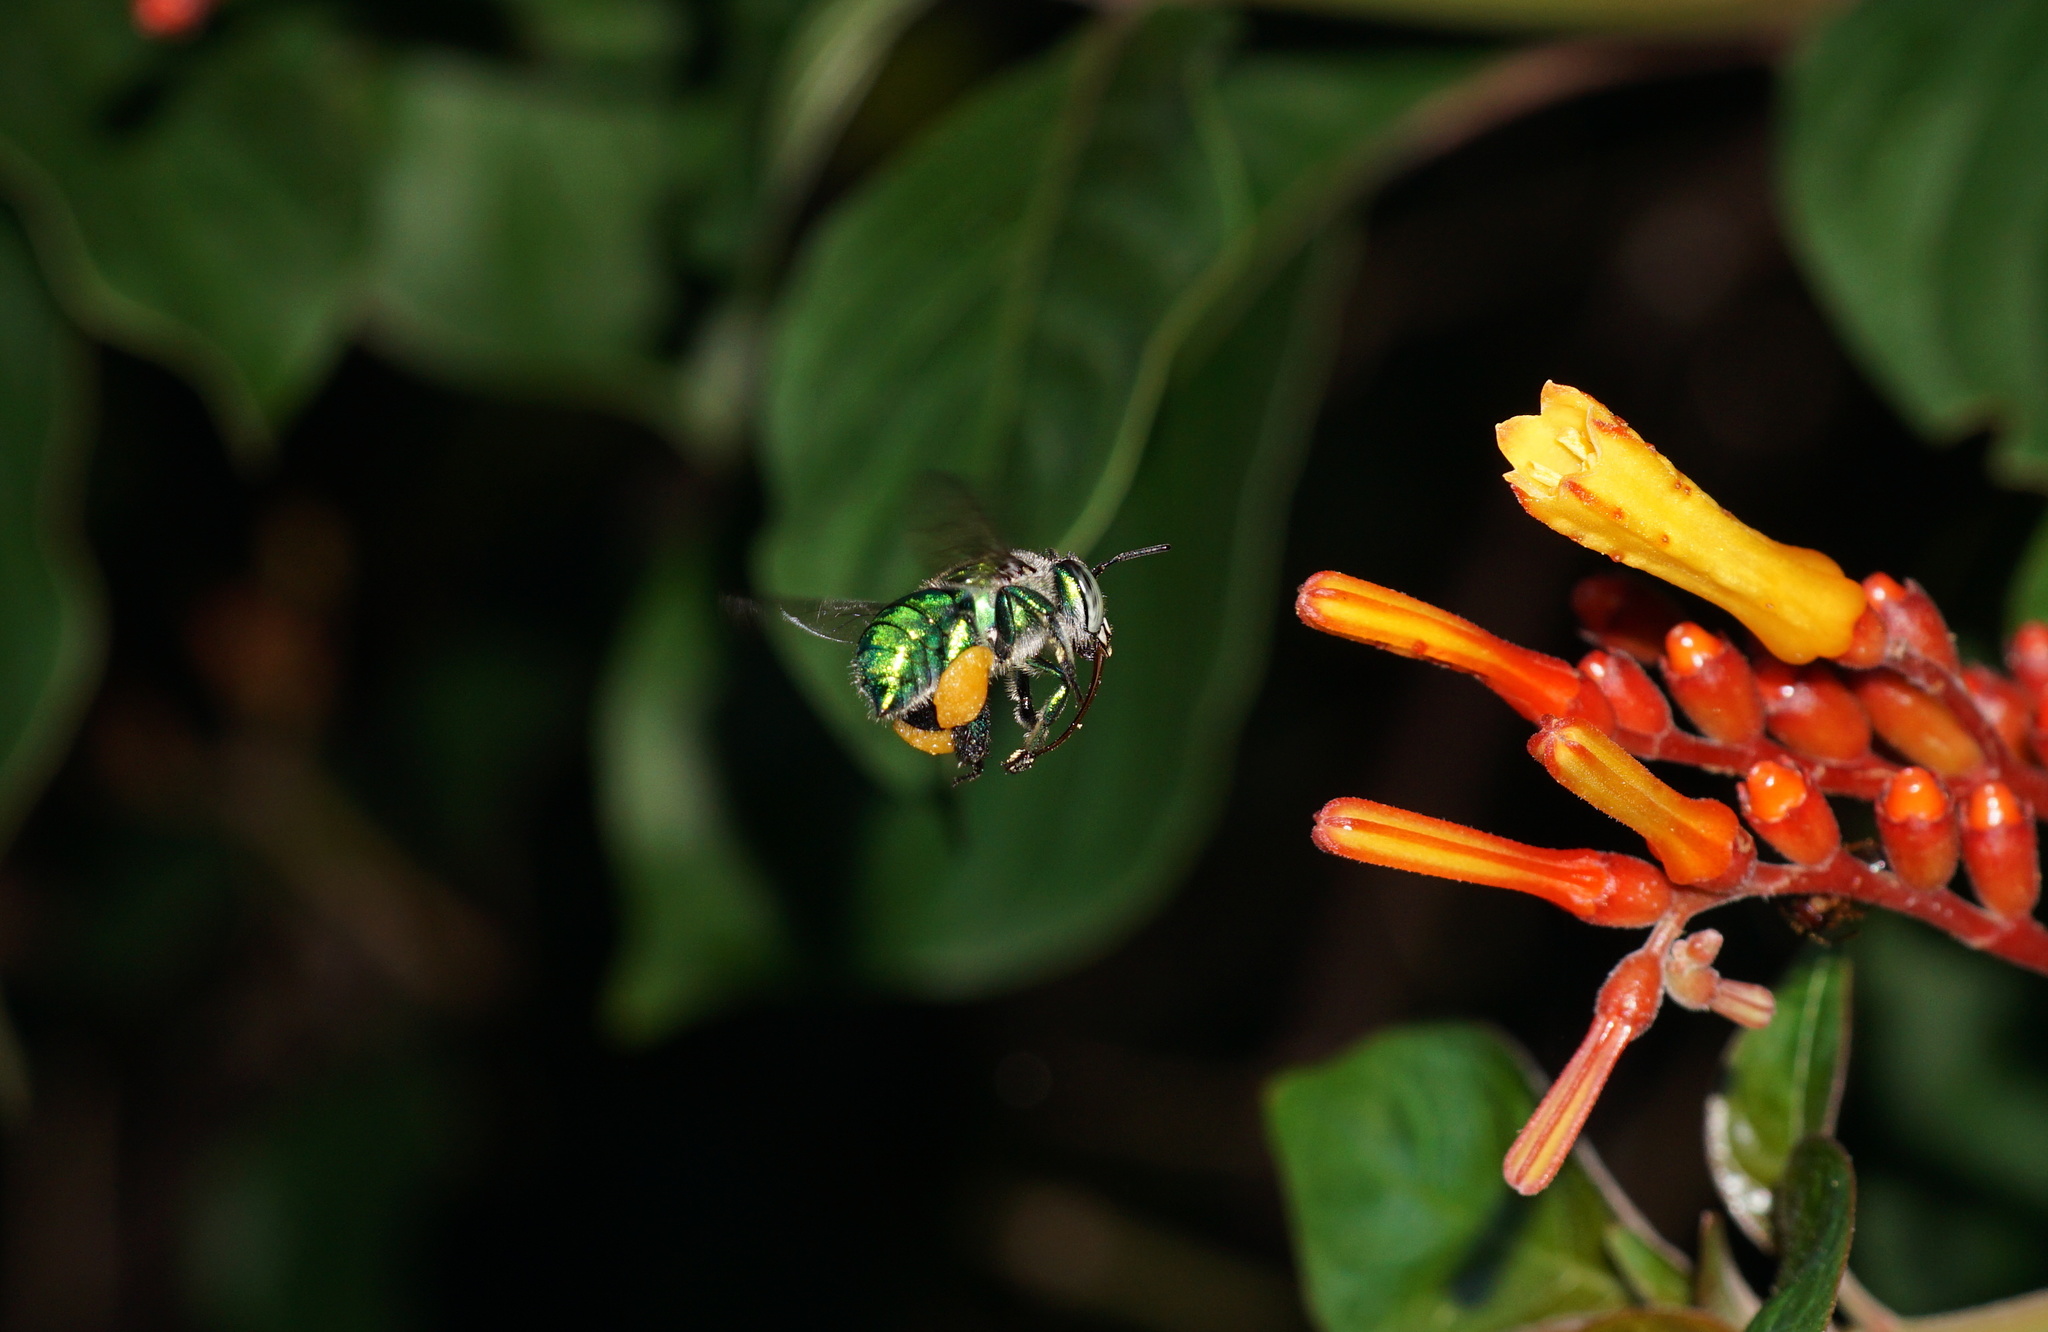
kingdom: Animalia
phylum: Arthropoda
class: Insecta
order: Hymenoptera
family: Apidae
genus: Euglossa
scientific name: Euglossa dilemma
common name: Green orchid bee
